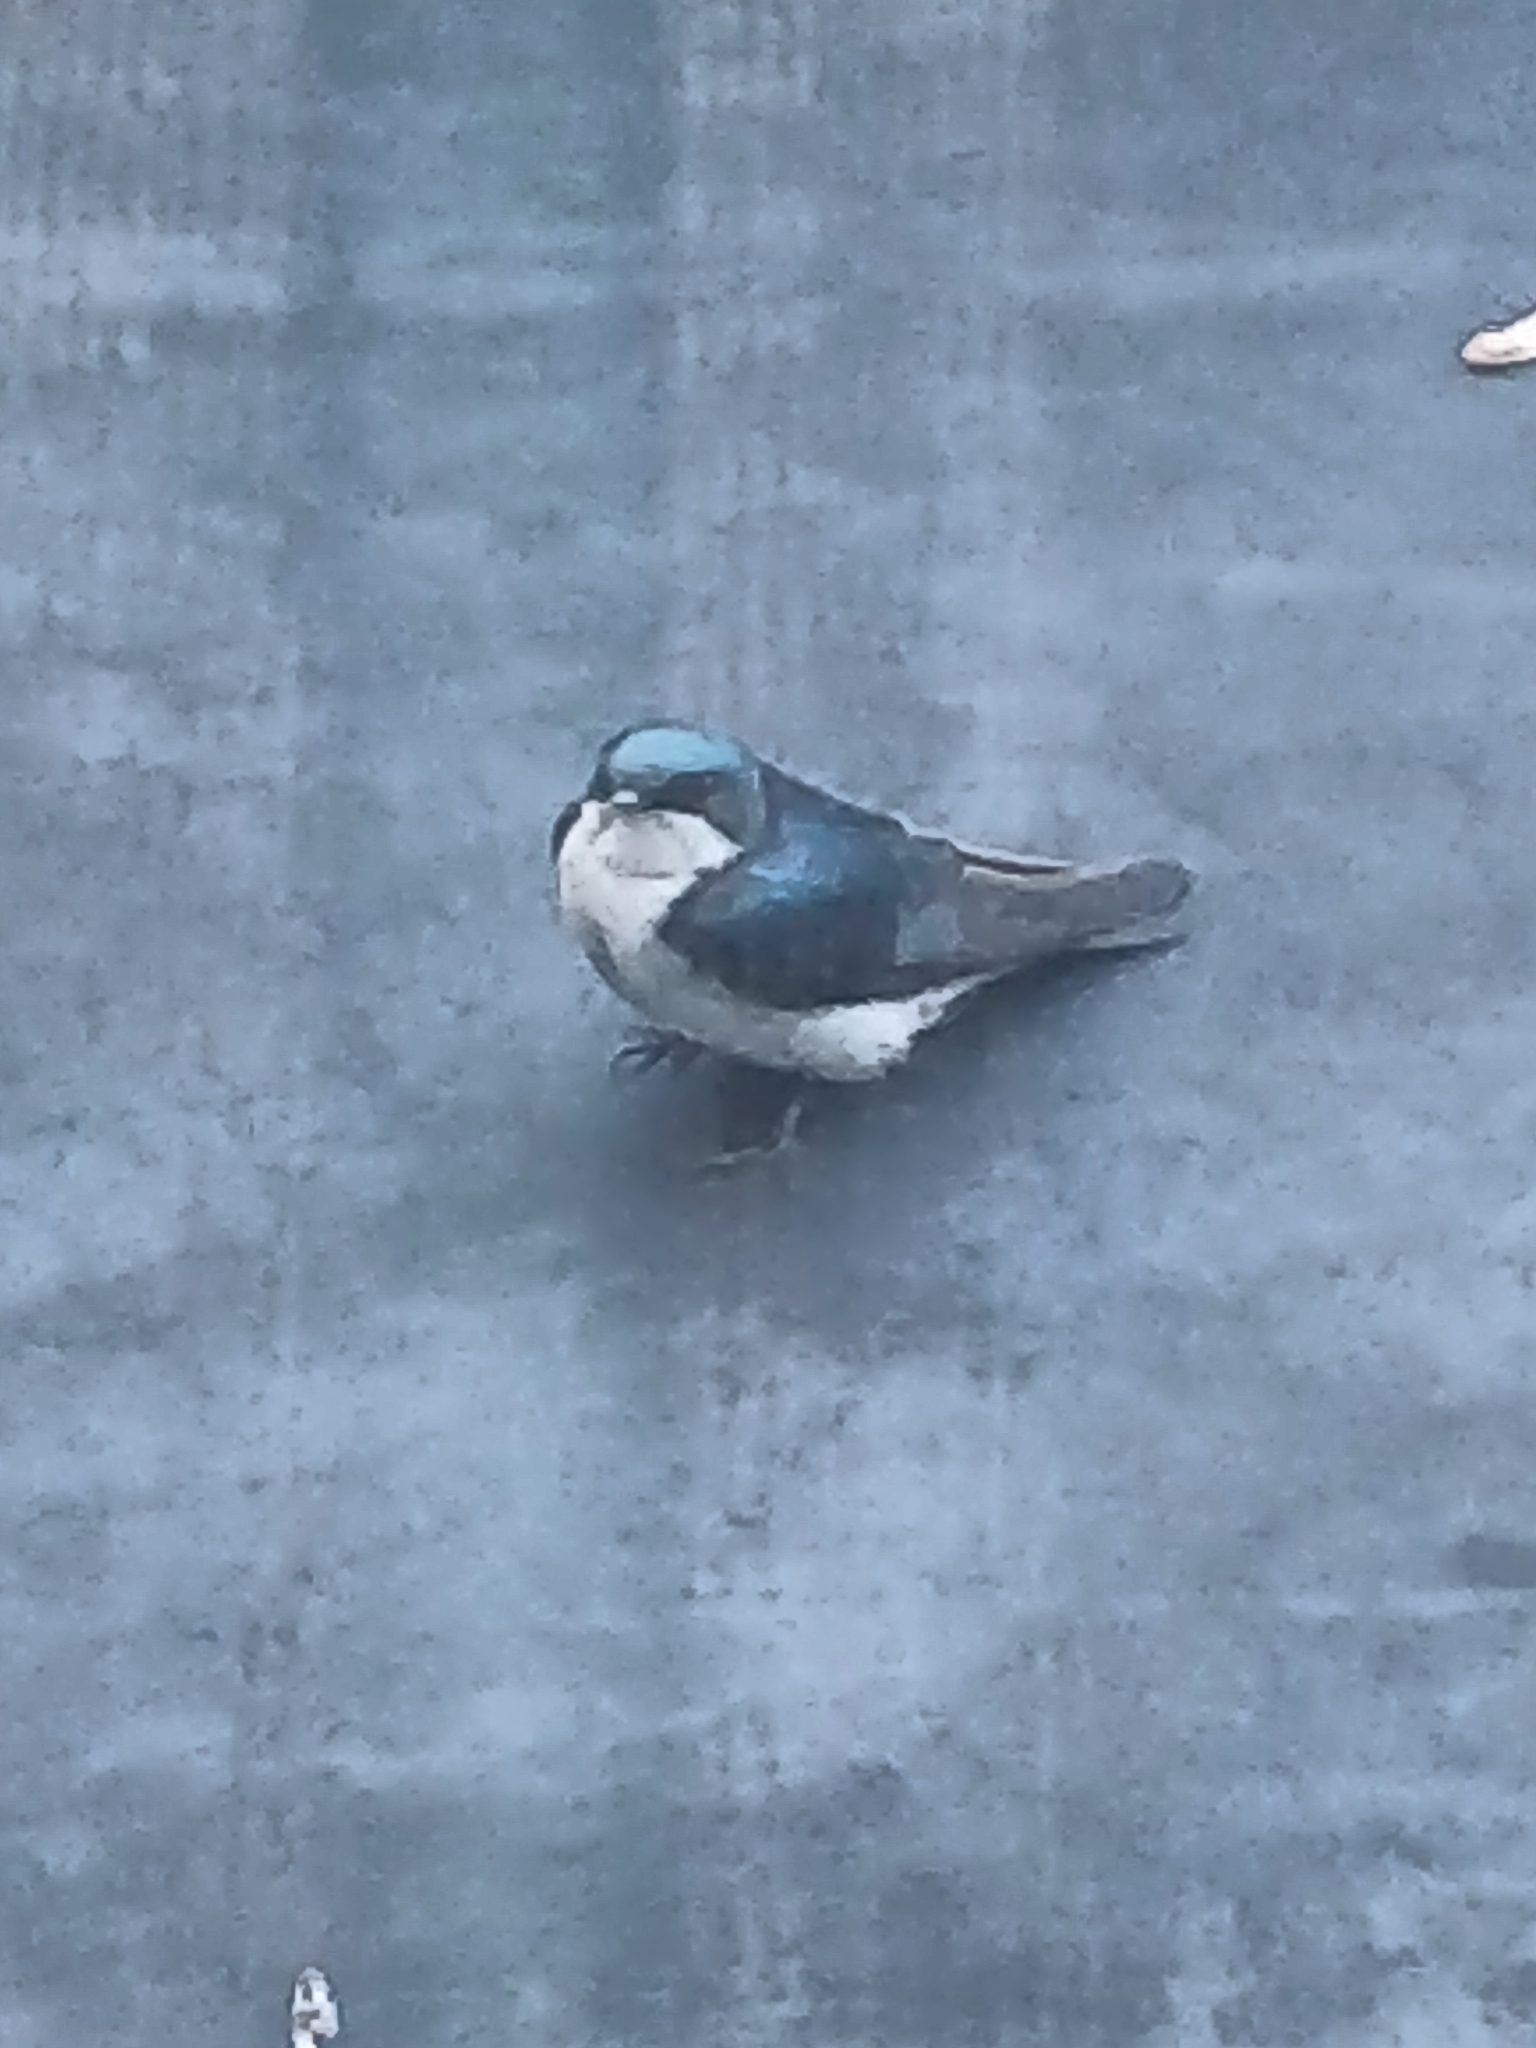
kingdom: Animalia
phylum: Chordata
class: Aves
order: Passeriformes
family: Hirundinidae
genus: Tachycineta
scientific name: Tachycineta bicolor
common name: Tree swallow
